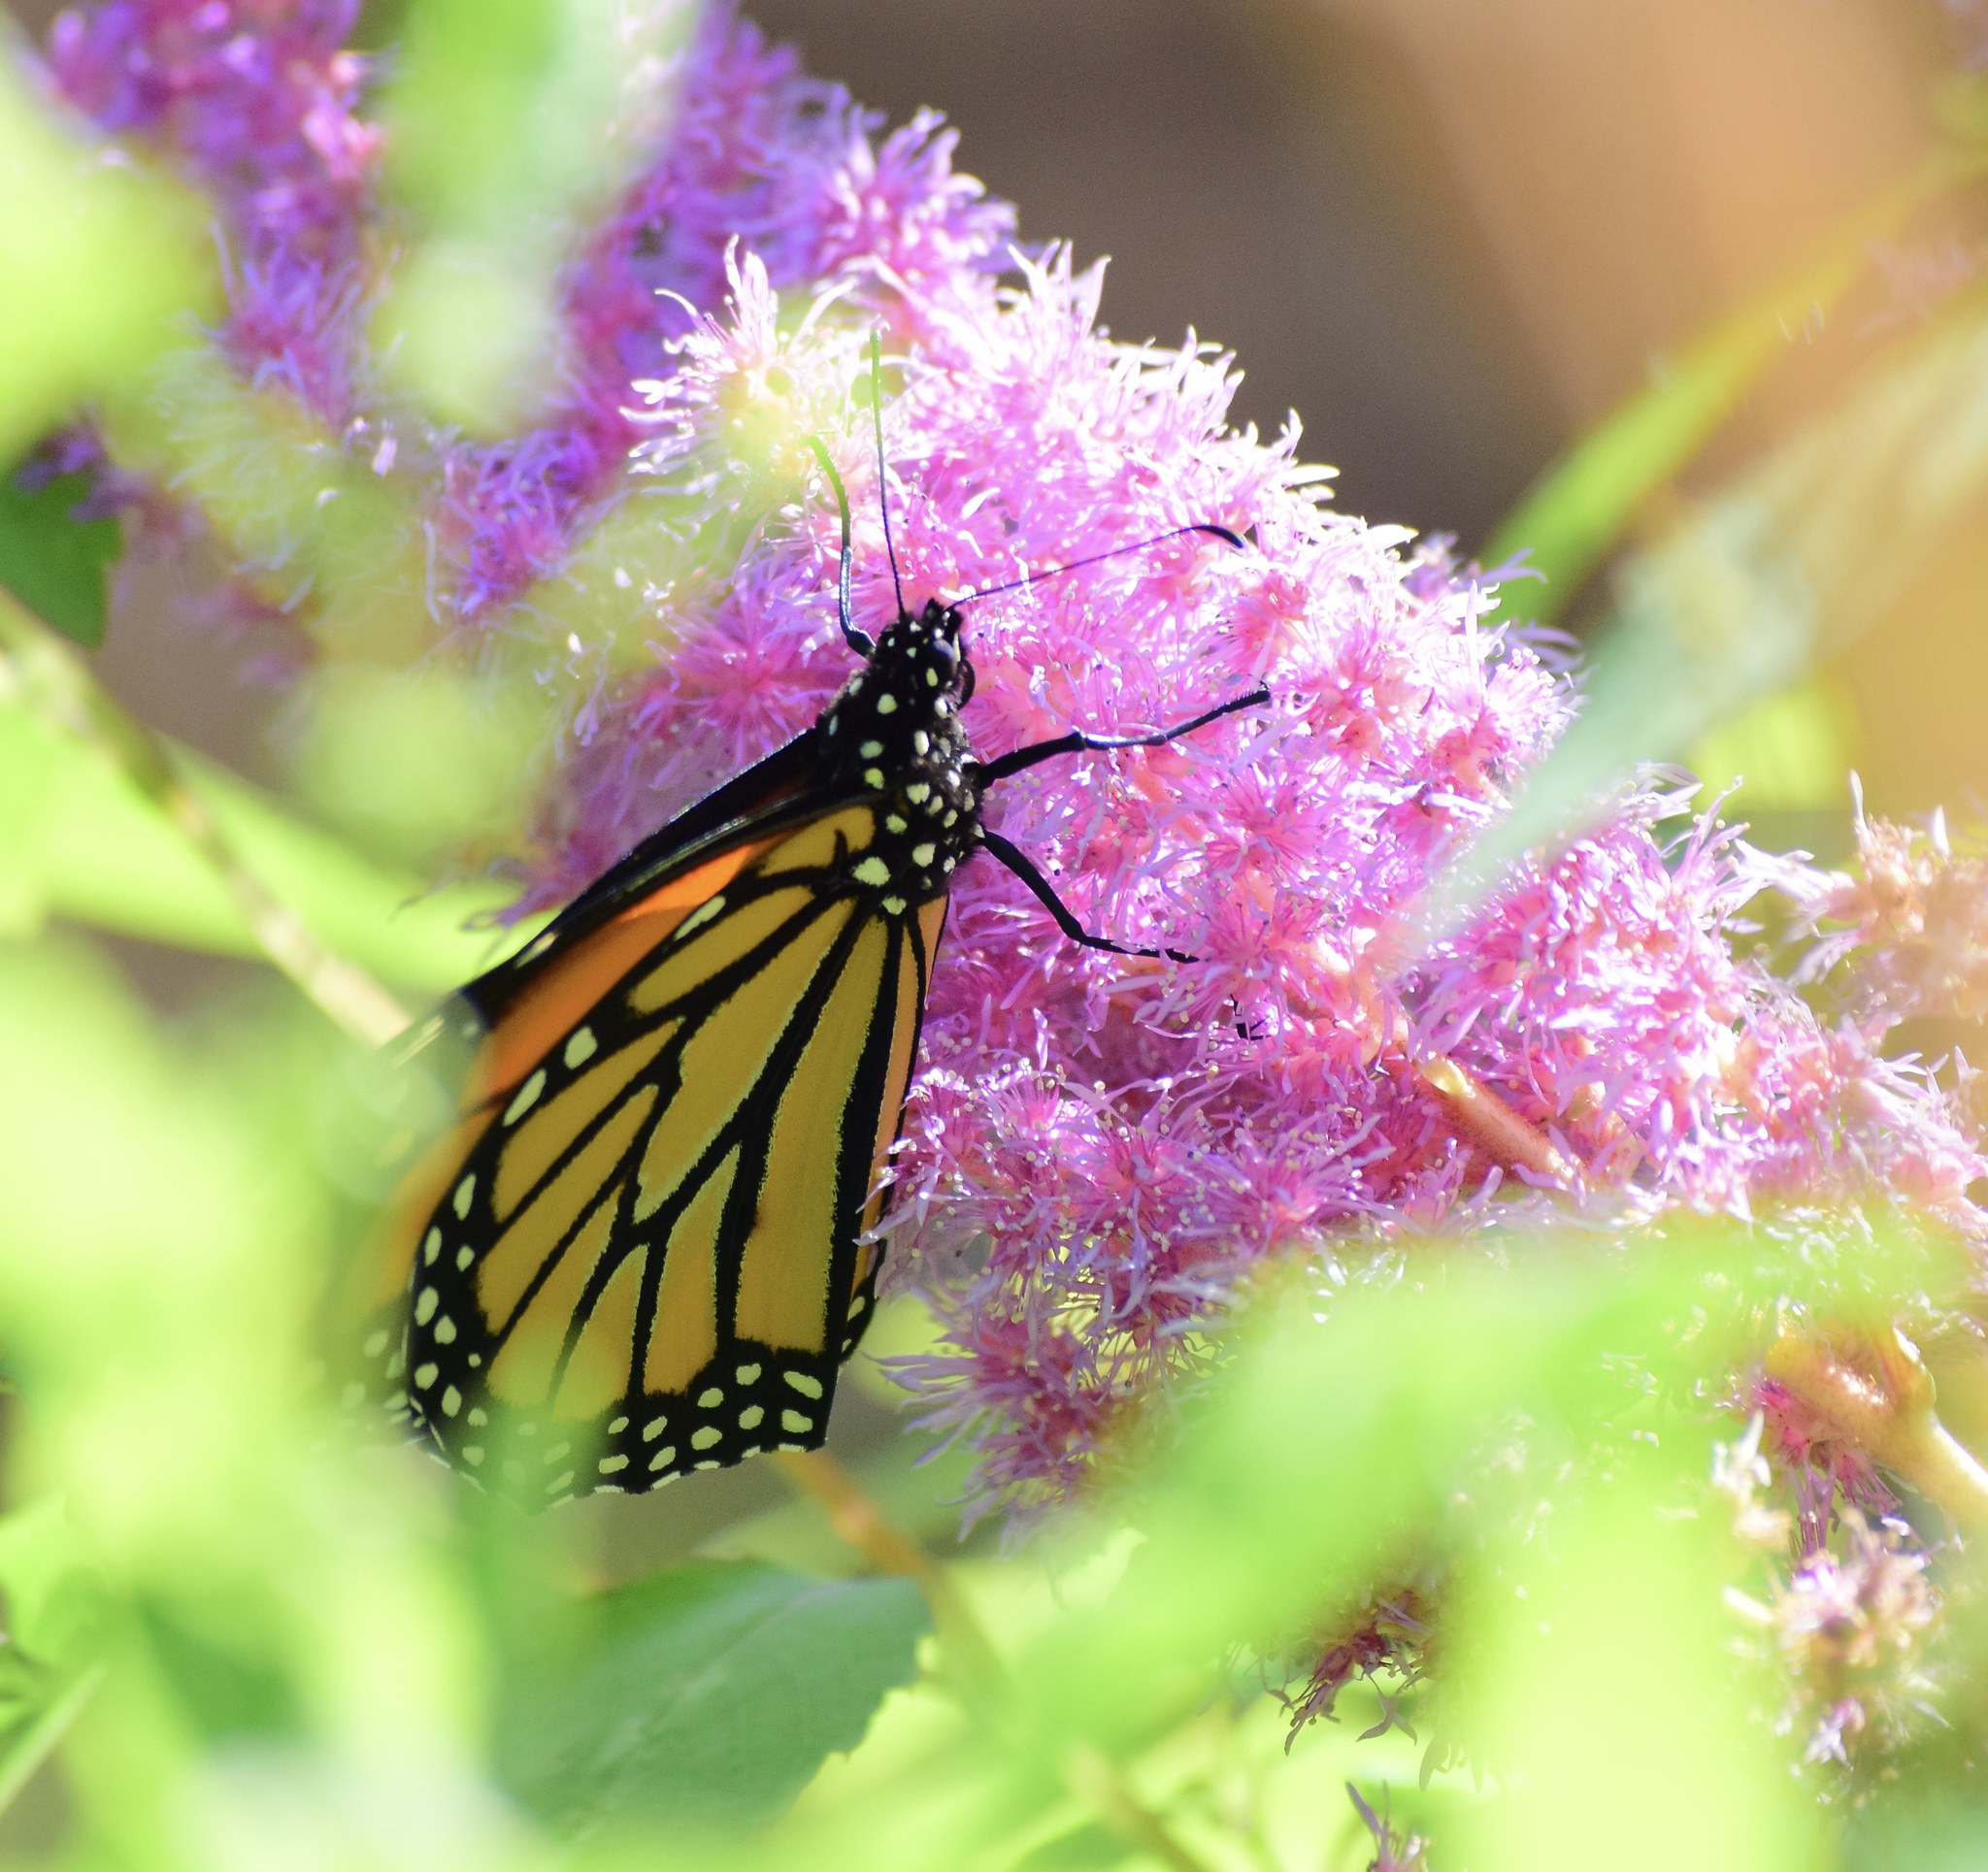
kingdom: Animalia
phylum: Arthropoda
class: Insecta
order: Lepidoptera
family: Nymphalidae
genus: Danaus
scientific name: Danaus plexippus
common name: Monarch
